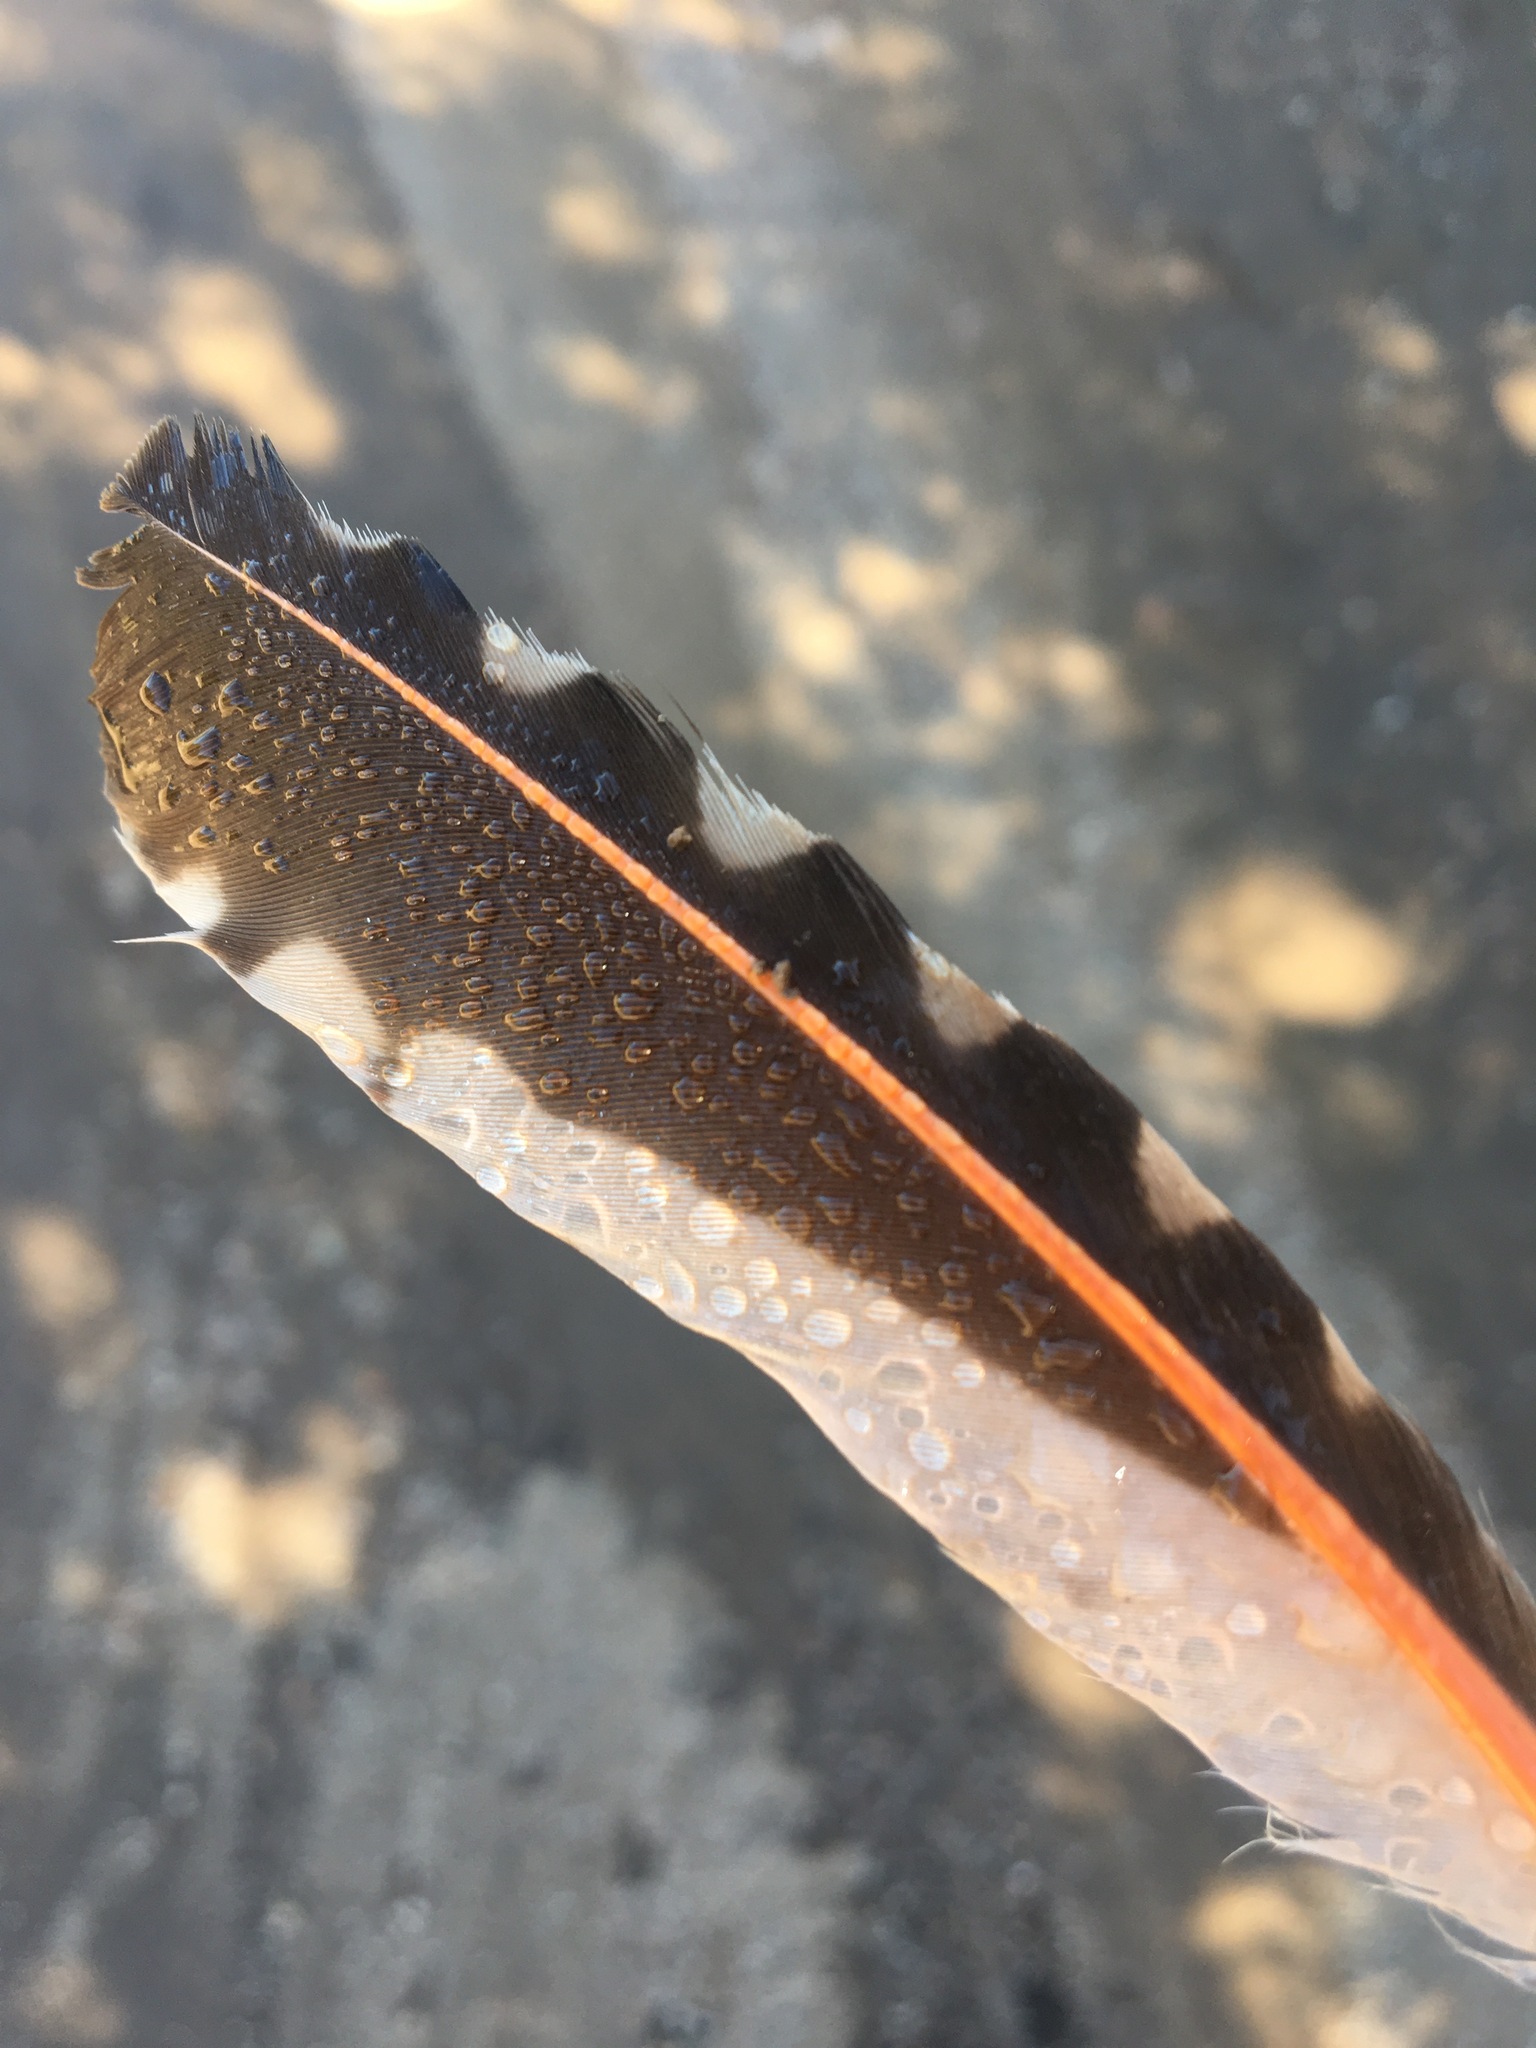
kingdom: Animalia
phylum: Chordata
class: Aves
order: Piciformes
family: Picidae
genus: Colaptes
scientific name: Colaptes auratus
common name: Northern flicker
